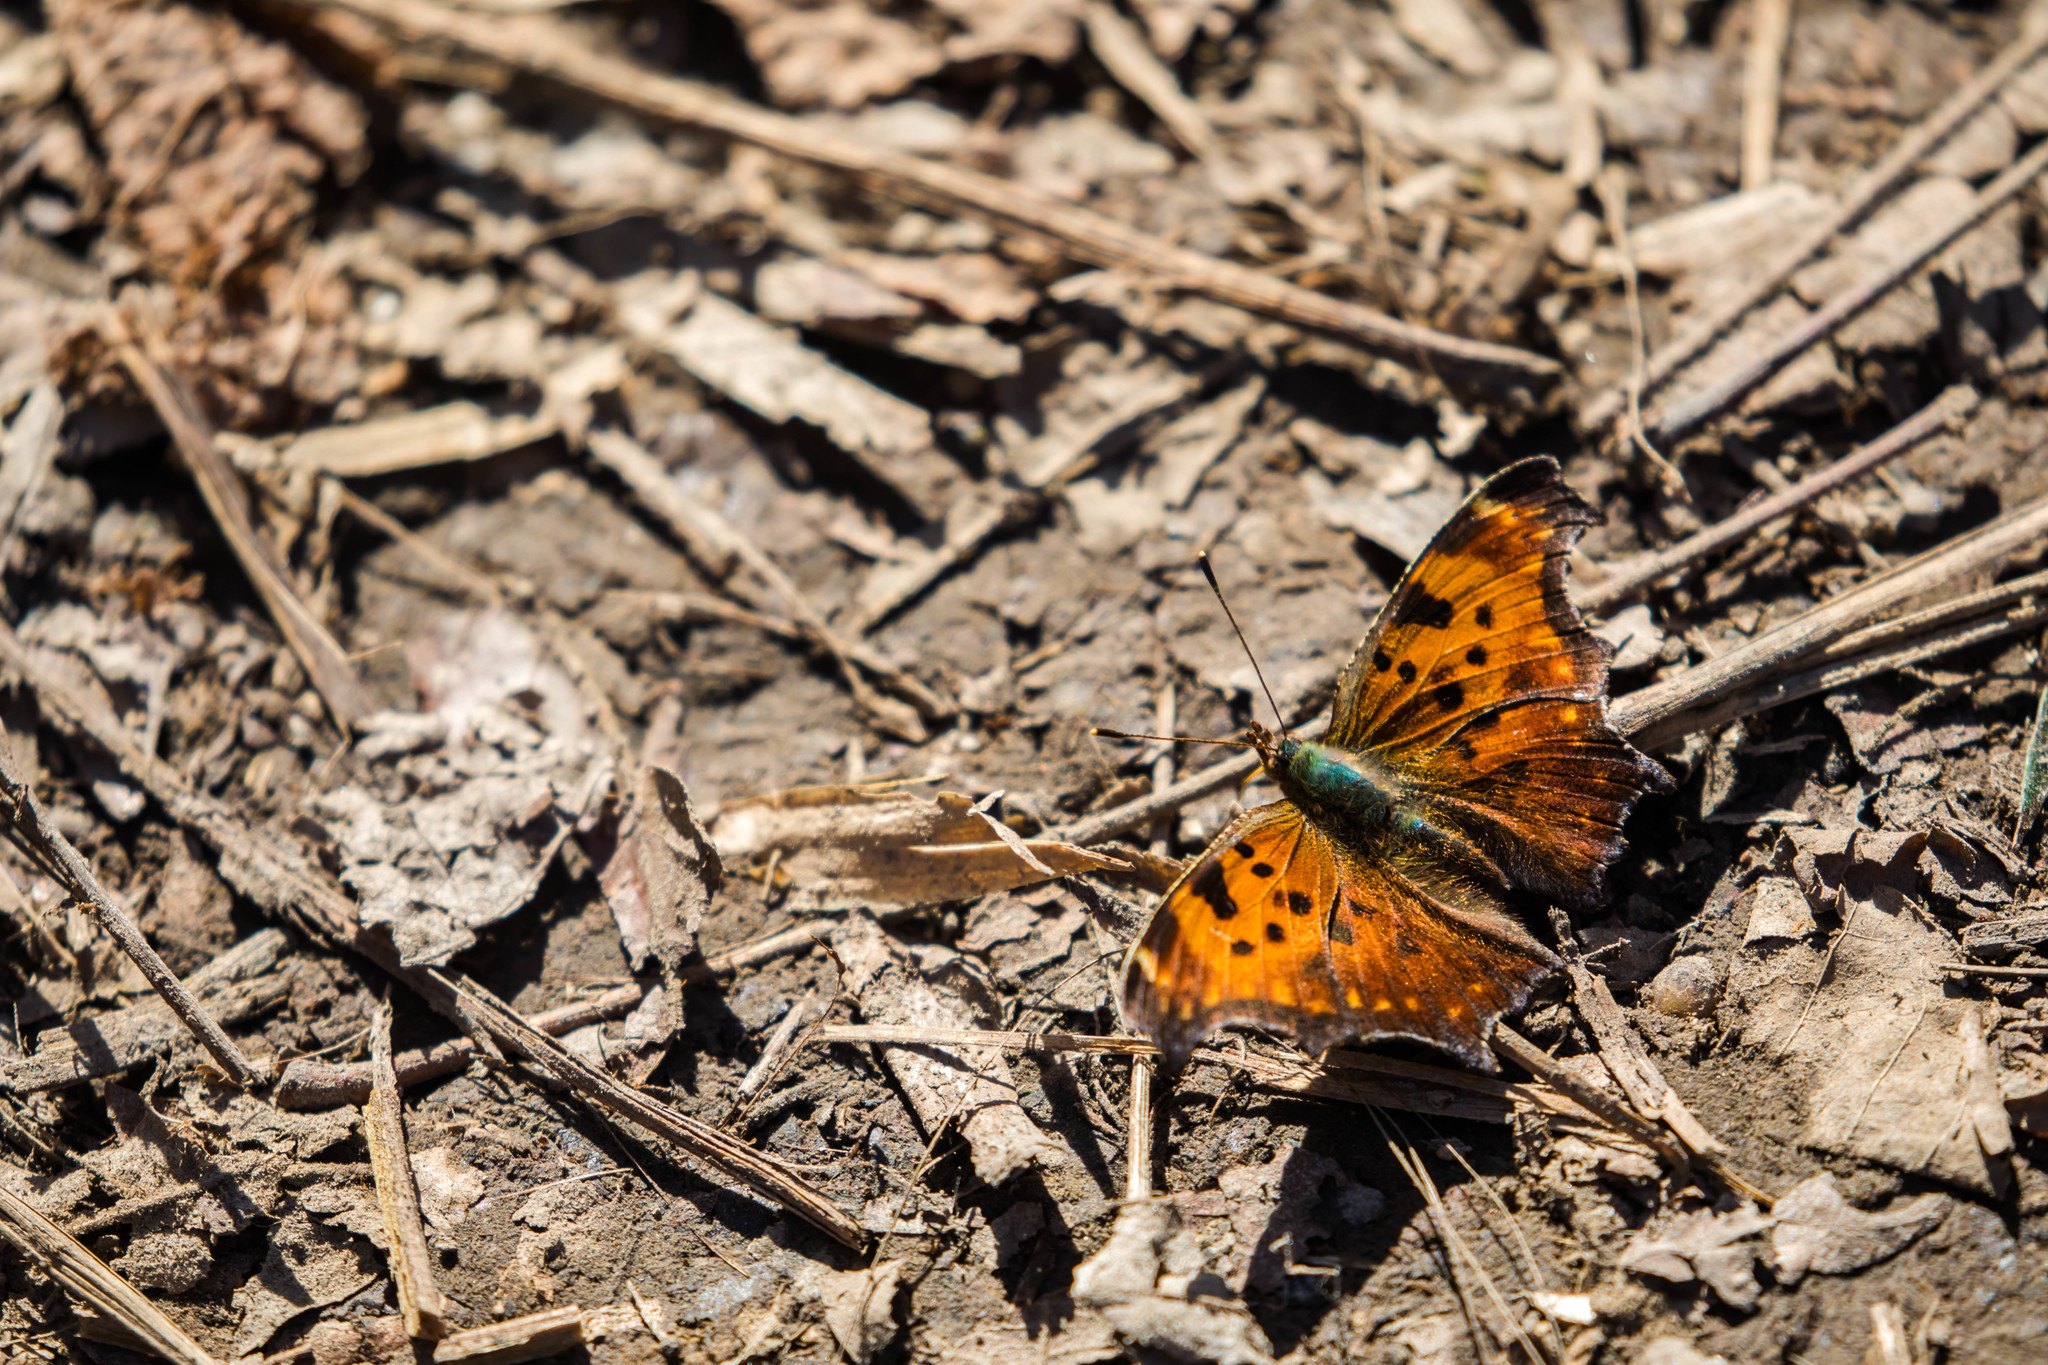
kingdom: Animalia
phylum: Arthropoda
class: Insecta
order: Lepidoptera
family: Nymphalidae
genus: Polygonia
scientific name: Polygonia comma
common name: Eastern comma
